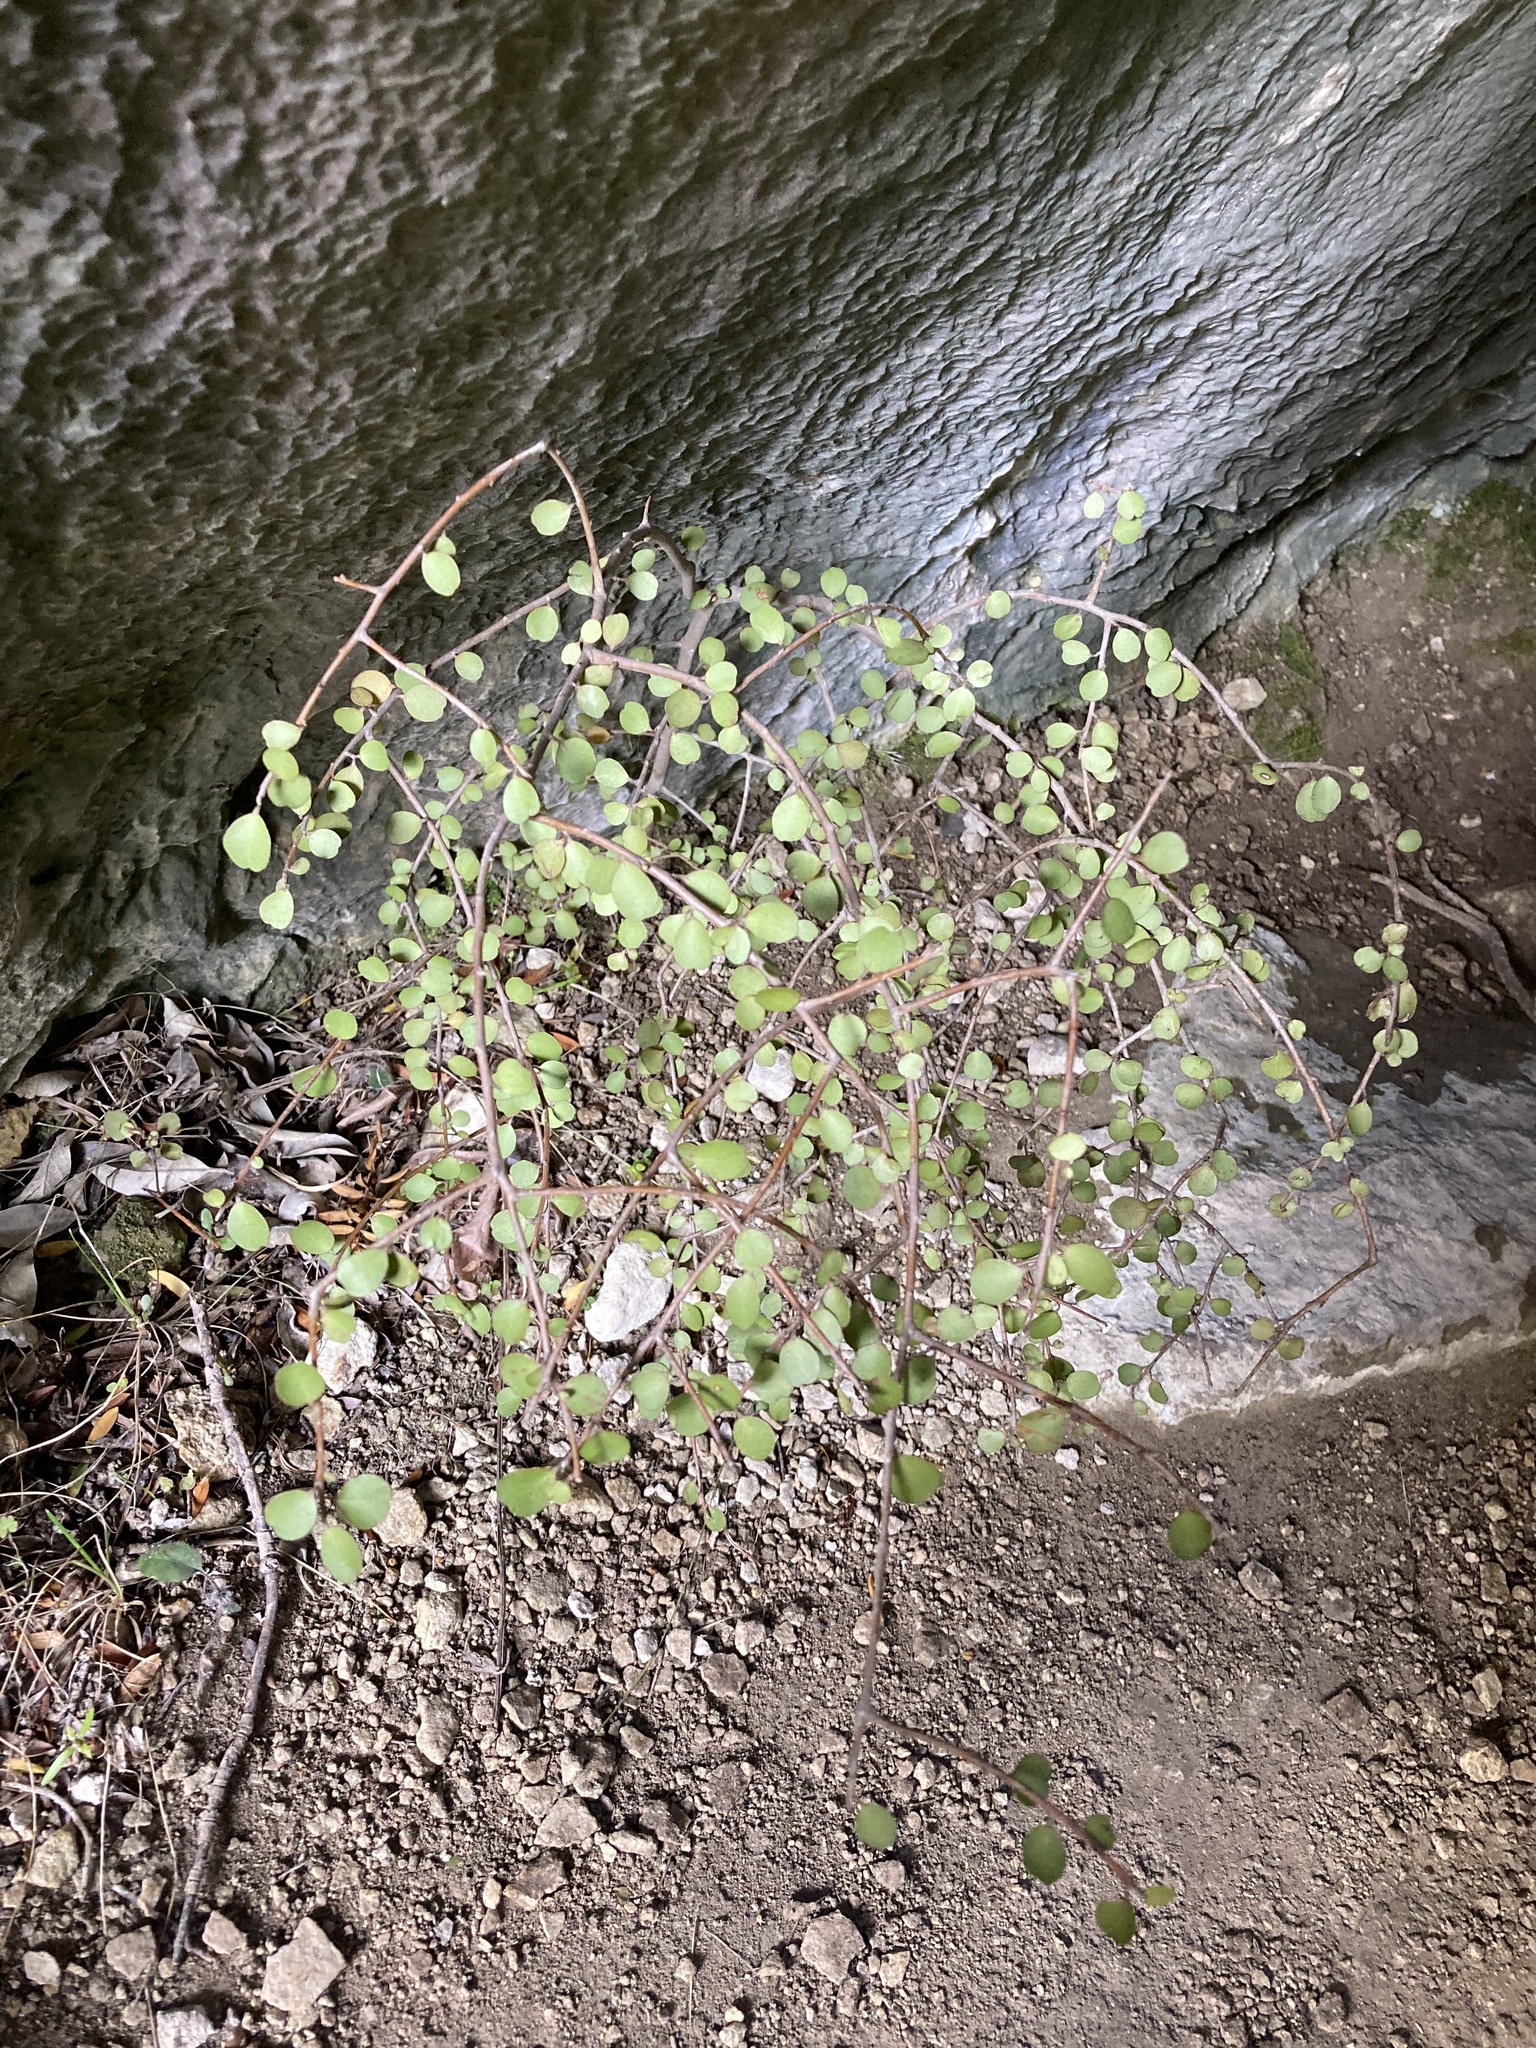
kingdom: Plantae
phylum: Tracheophyta
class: Magnoliopsida
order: Ericales
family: Primulaceae
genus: Myrsine
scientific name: Myrsine divaricata
